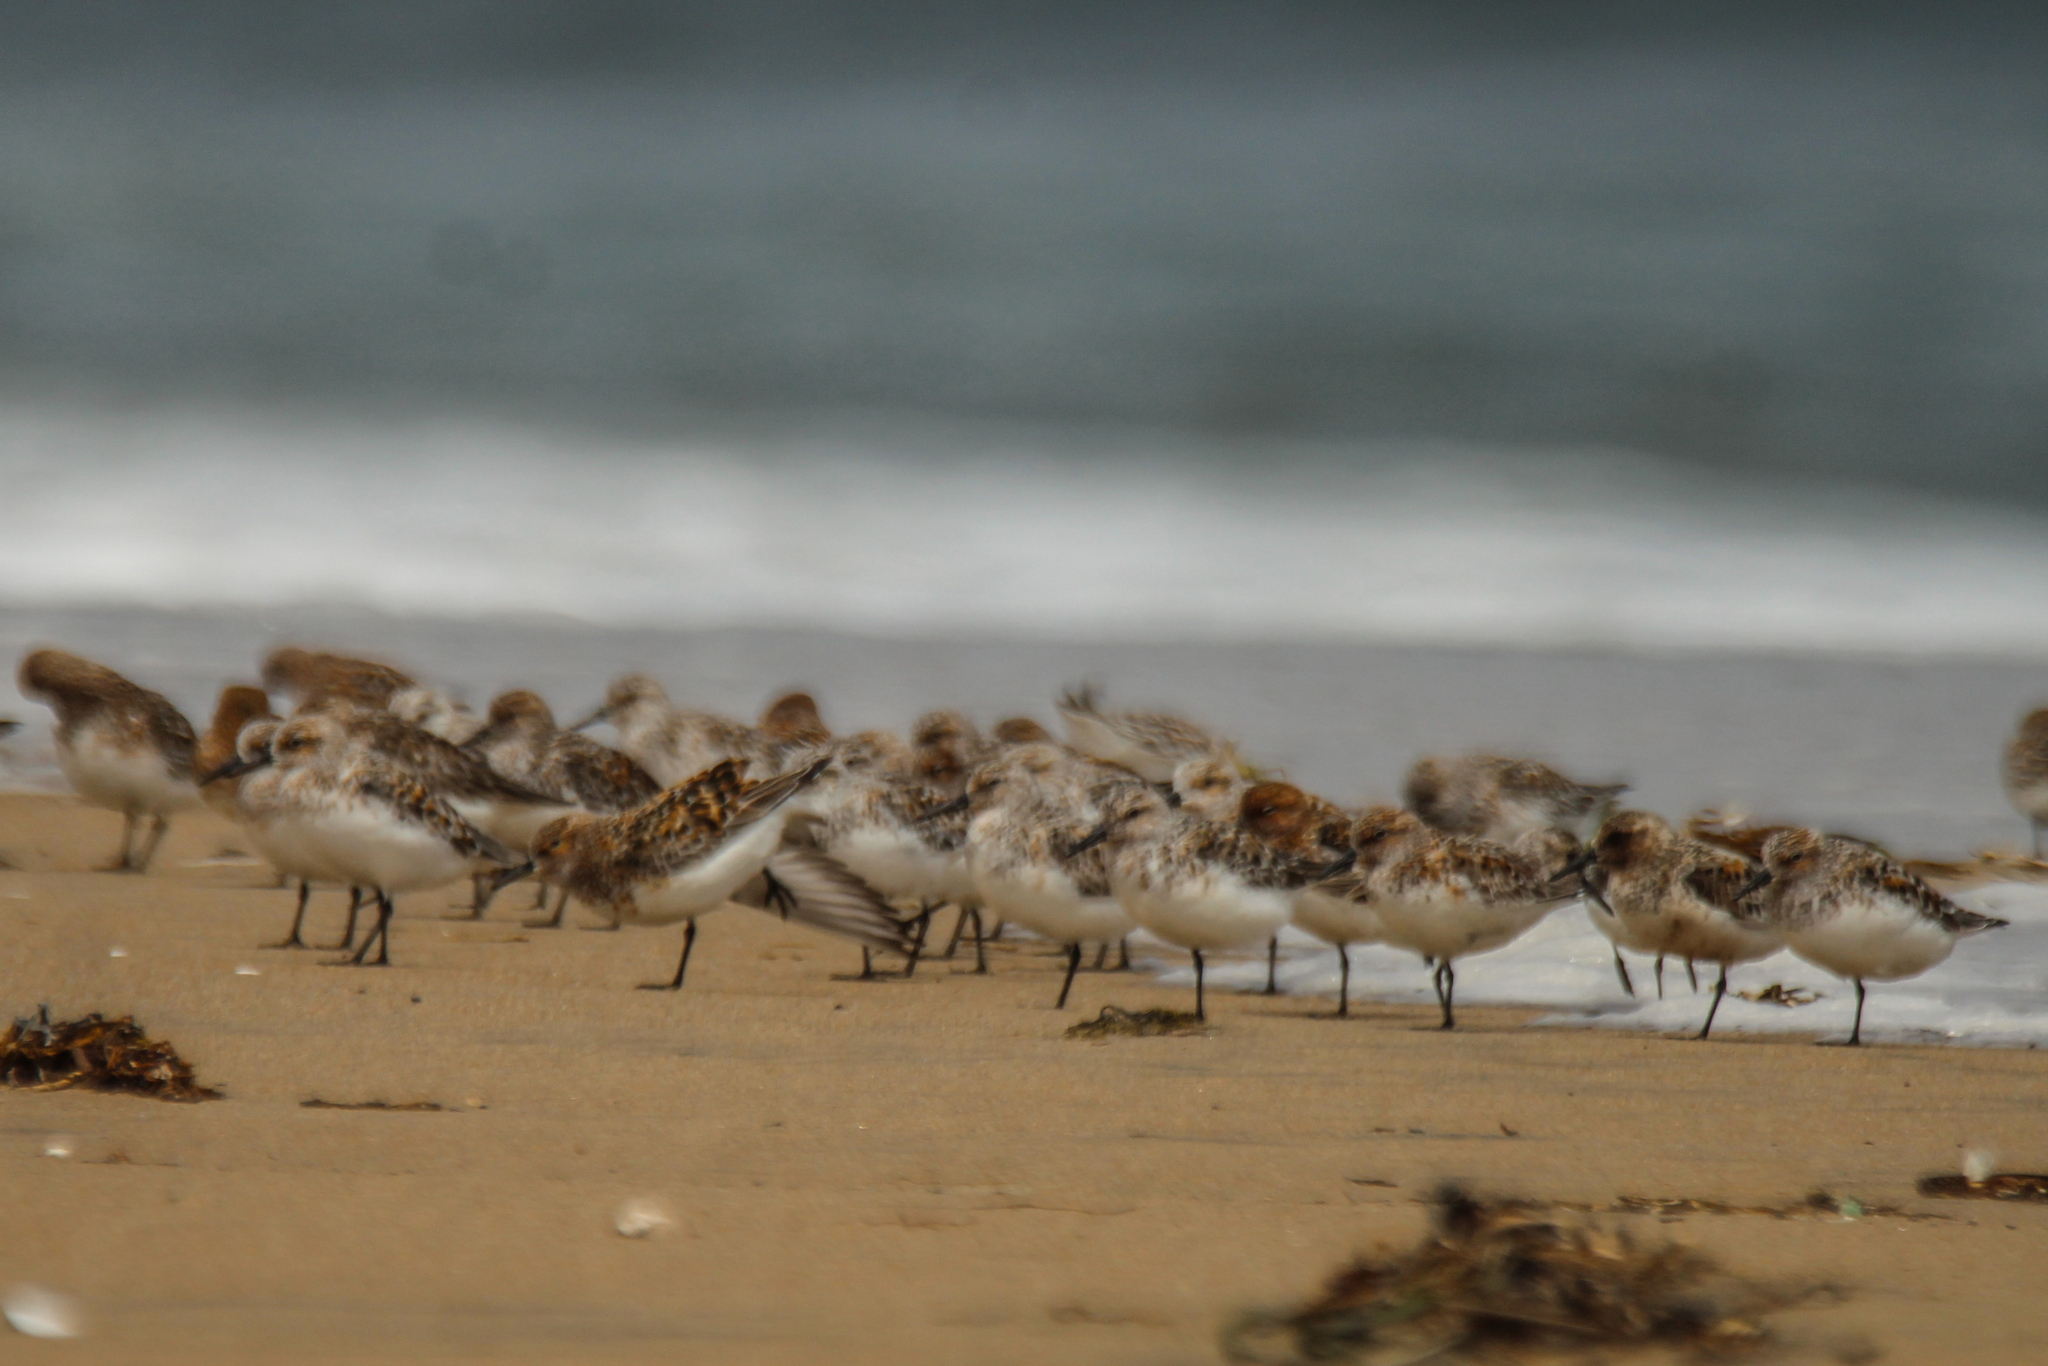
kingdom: Animalia
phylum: Chordata
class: Aves
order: Charadriiformes
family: Scolopacidae
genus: Calidris
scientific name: Calidris alba
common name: Sanderling
